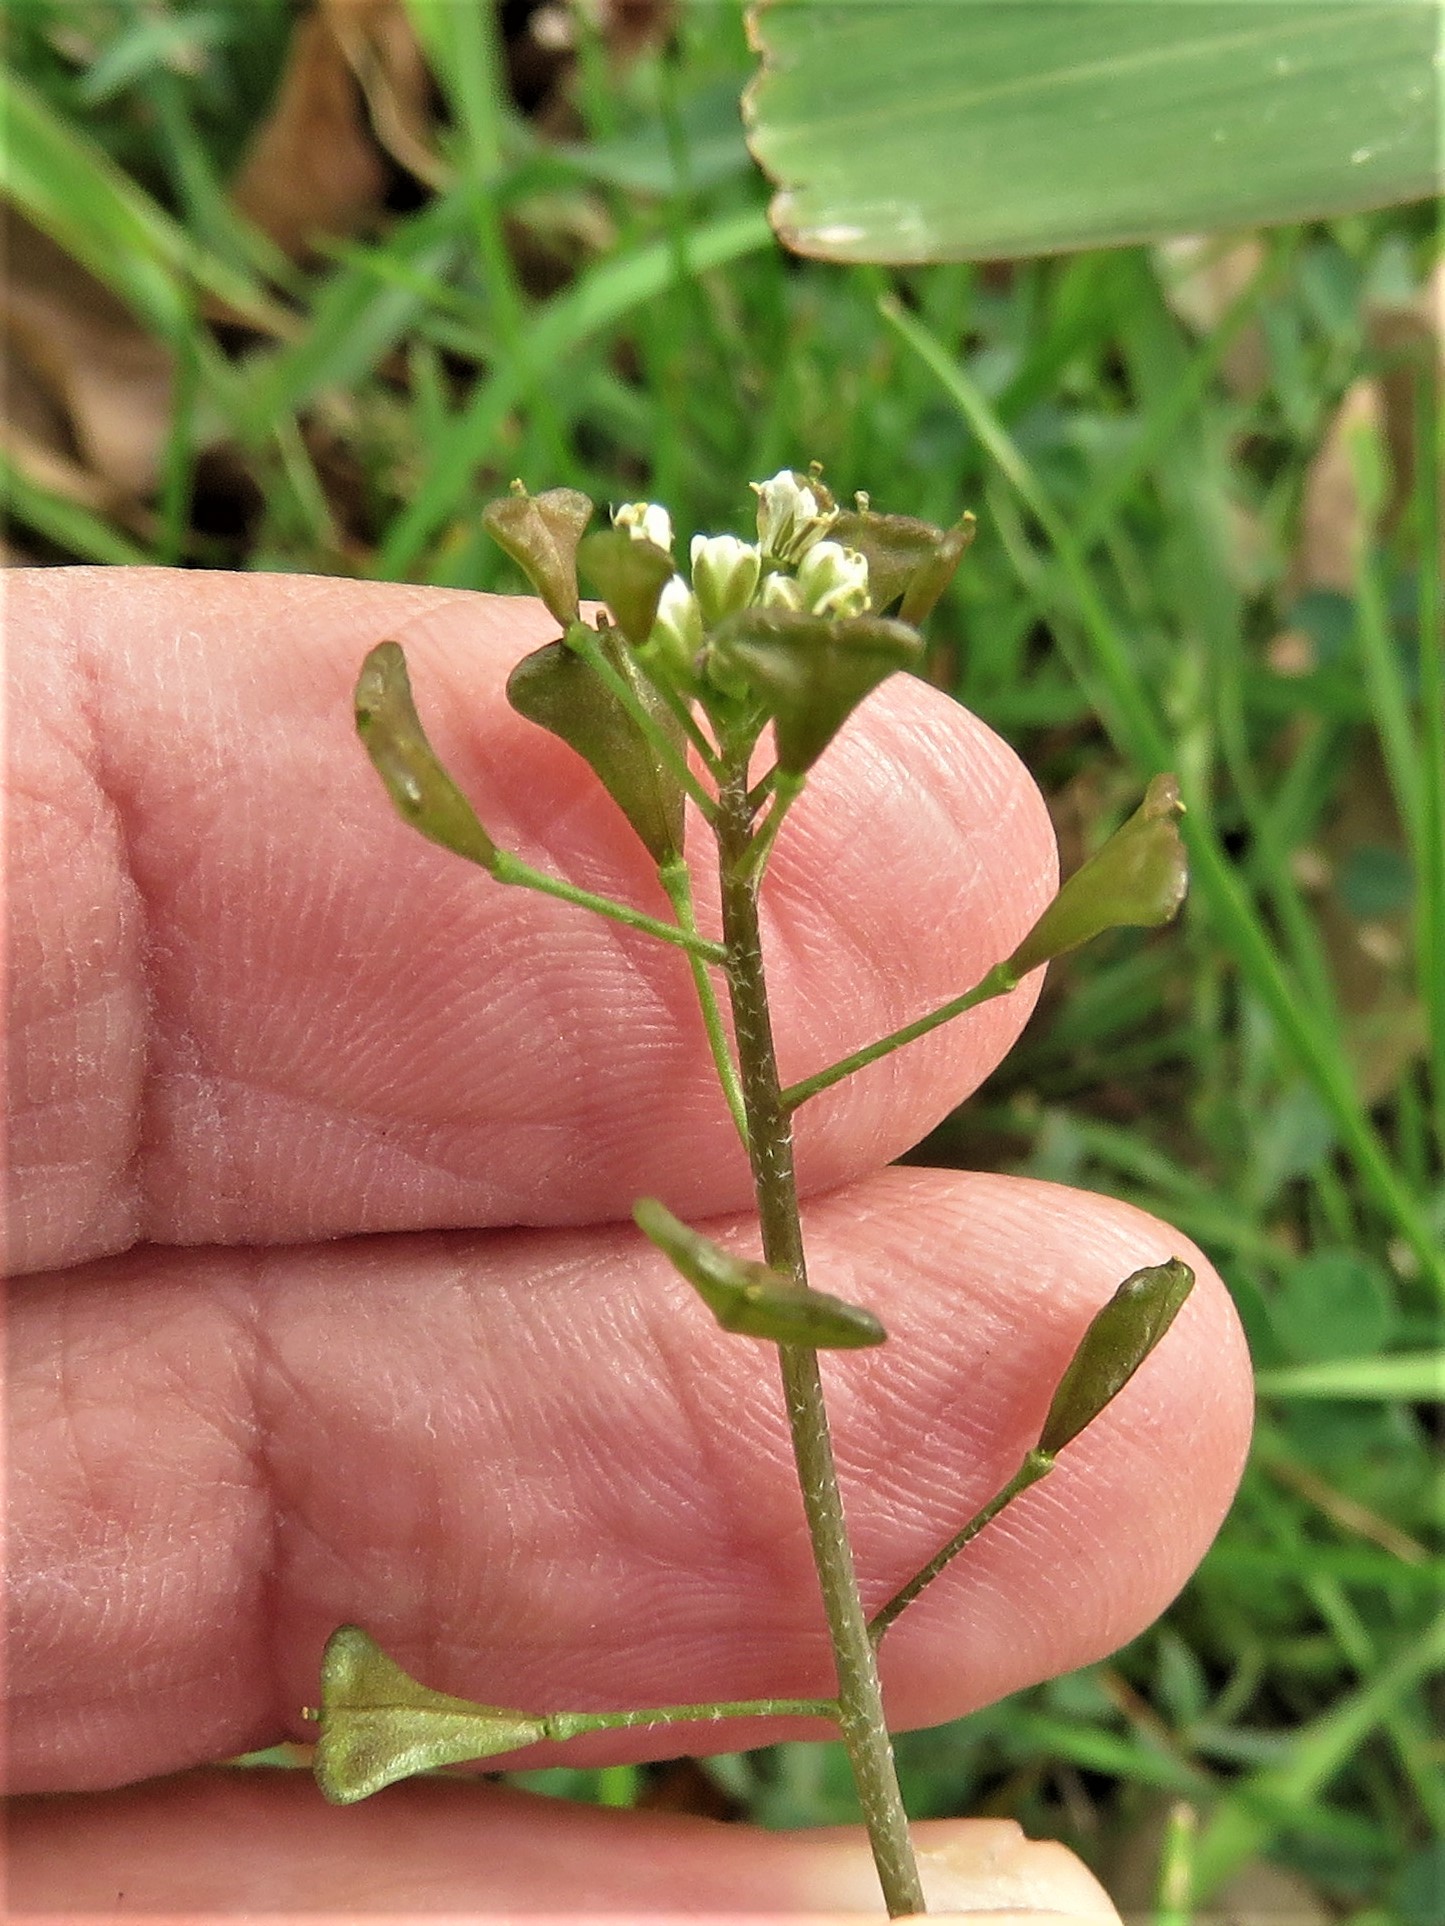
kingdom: Plantae
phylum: Tracheophyta
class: Magnoliopsida
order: Brassicales
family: Brassicaceae
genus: Capsella
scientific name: Capsella bursa-pastoris
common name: Shepherd's purse
